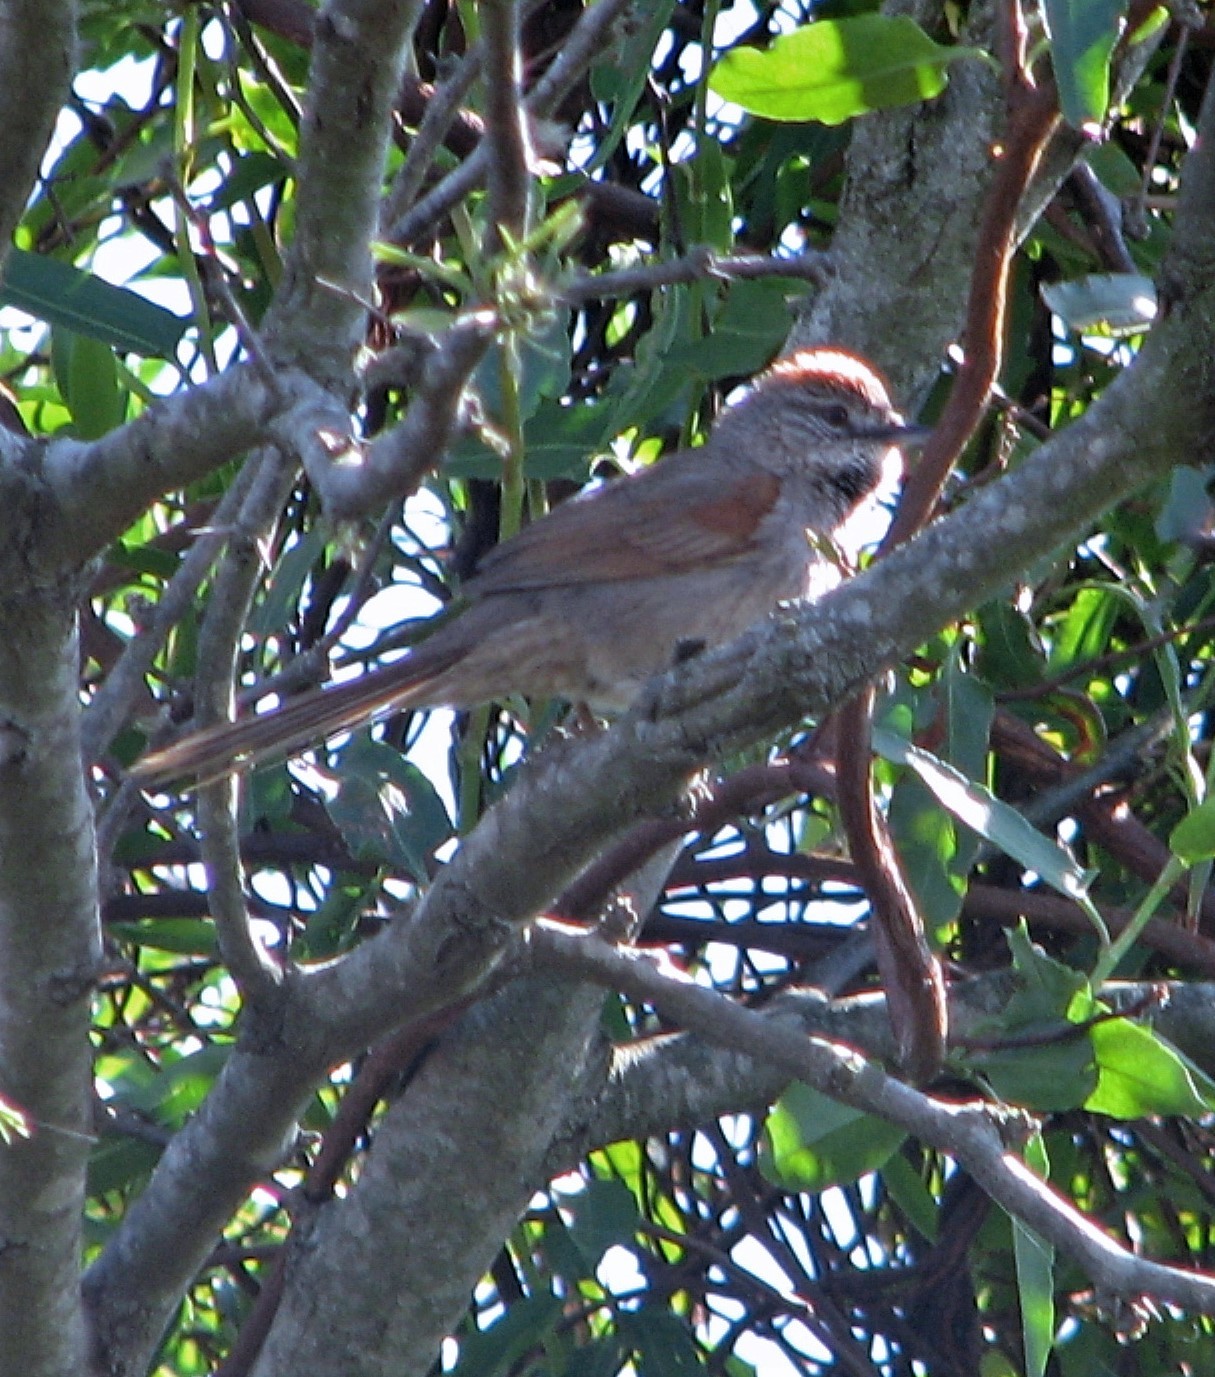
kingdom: Animalia
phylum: Chordata
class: Aves
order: Passeriformes
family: Furnariidae
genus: Synallaxis
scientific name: Synallaxis albescens
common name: Pale-breasted spinetail
